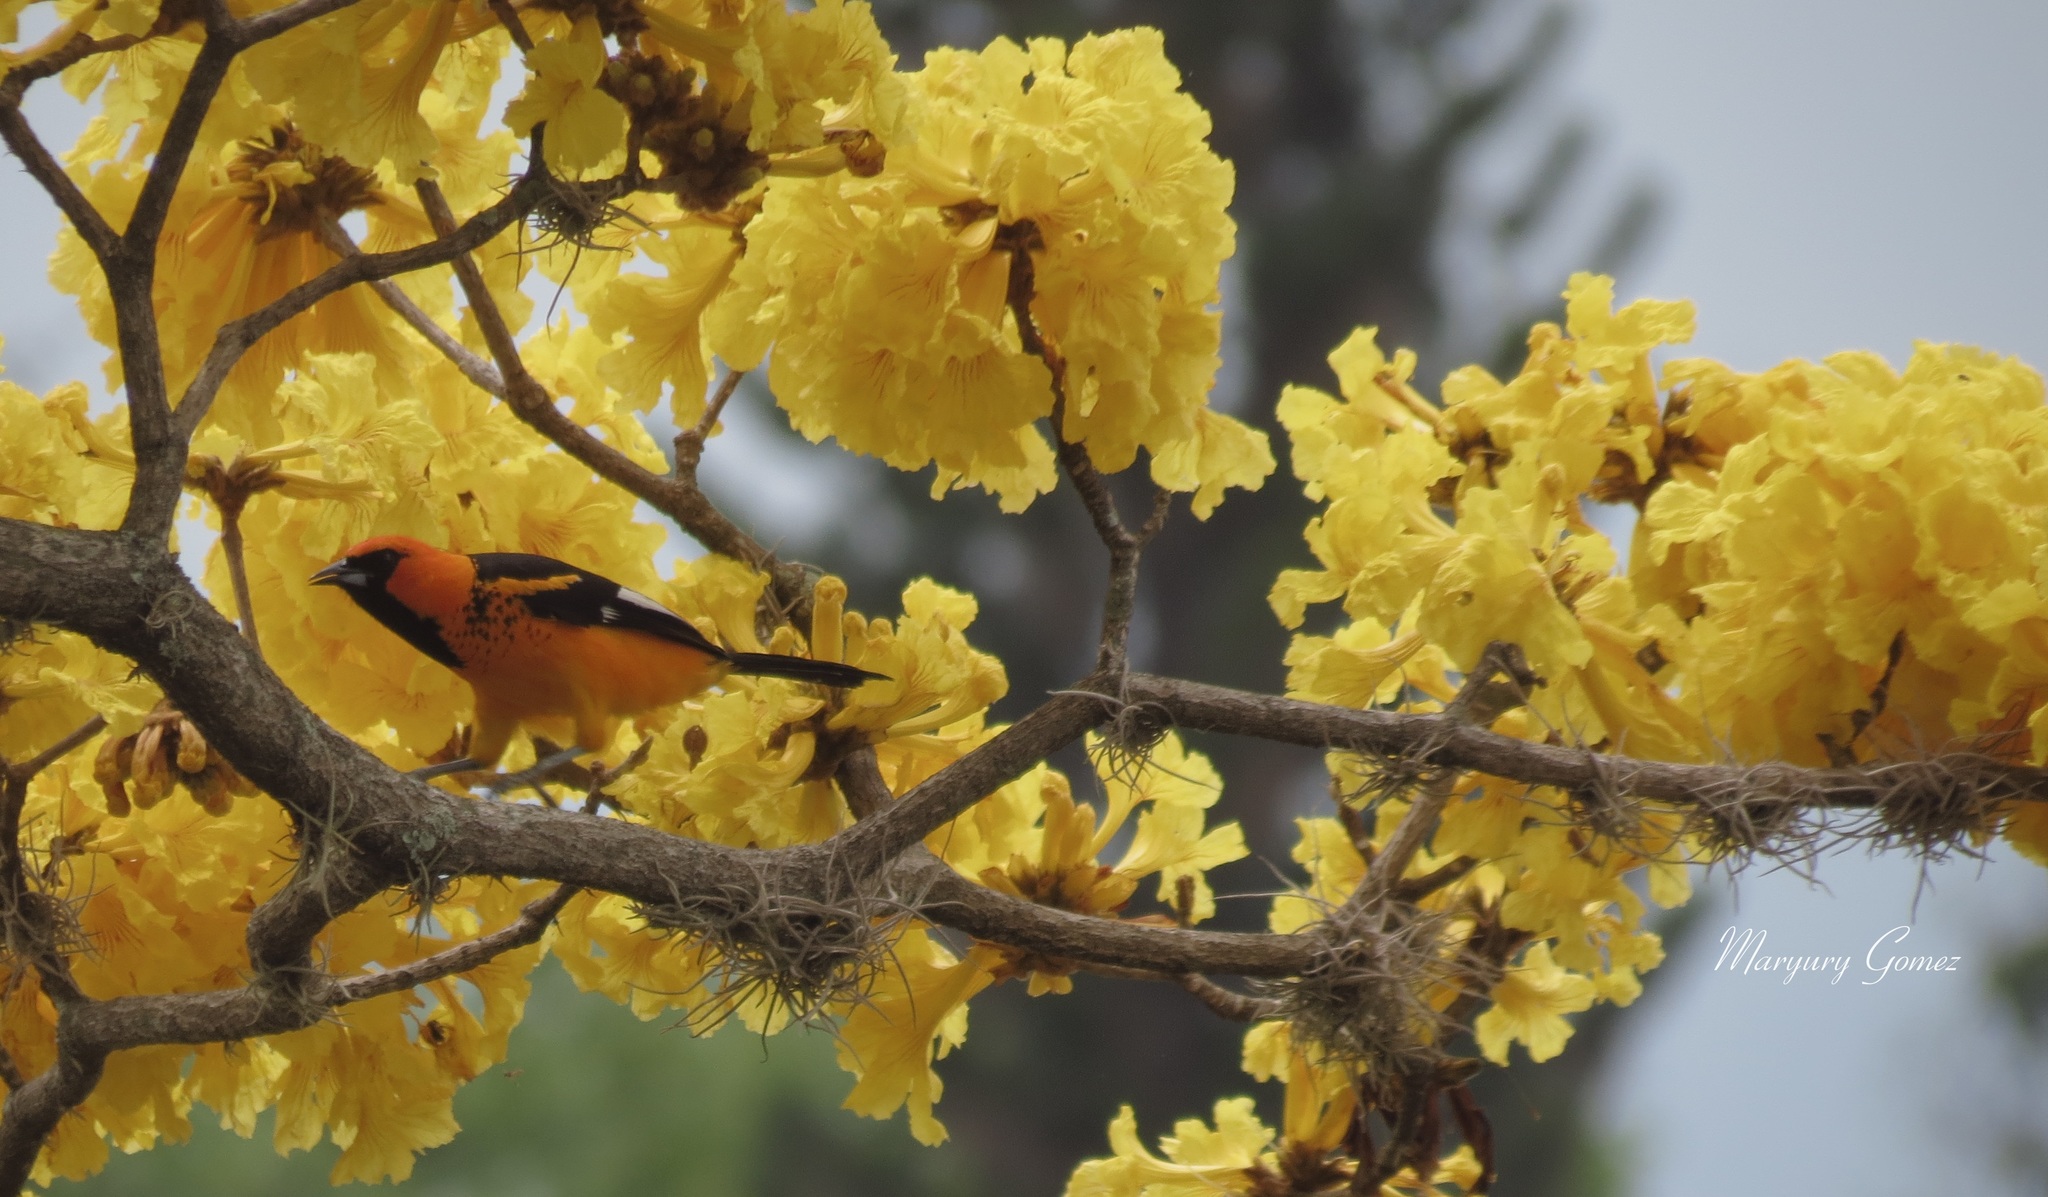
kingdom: Animalia
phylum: Chordata
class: Aves
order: Passeriformes
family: Icteridae
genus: Icterus
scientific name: Icterus pectoralis
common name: Spot-breasted oriole
